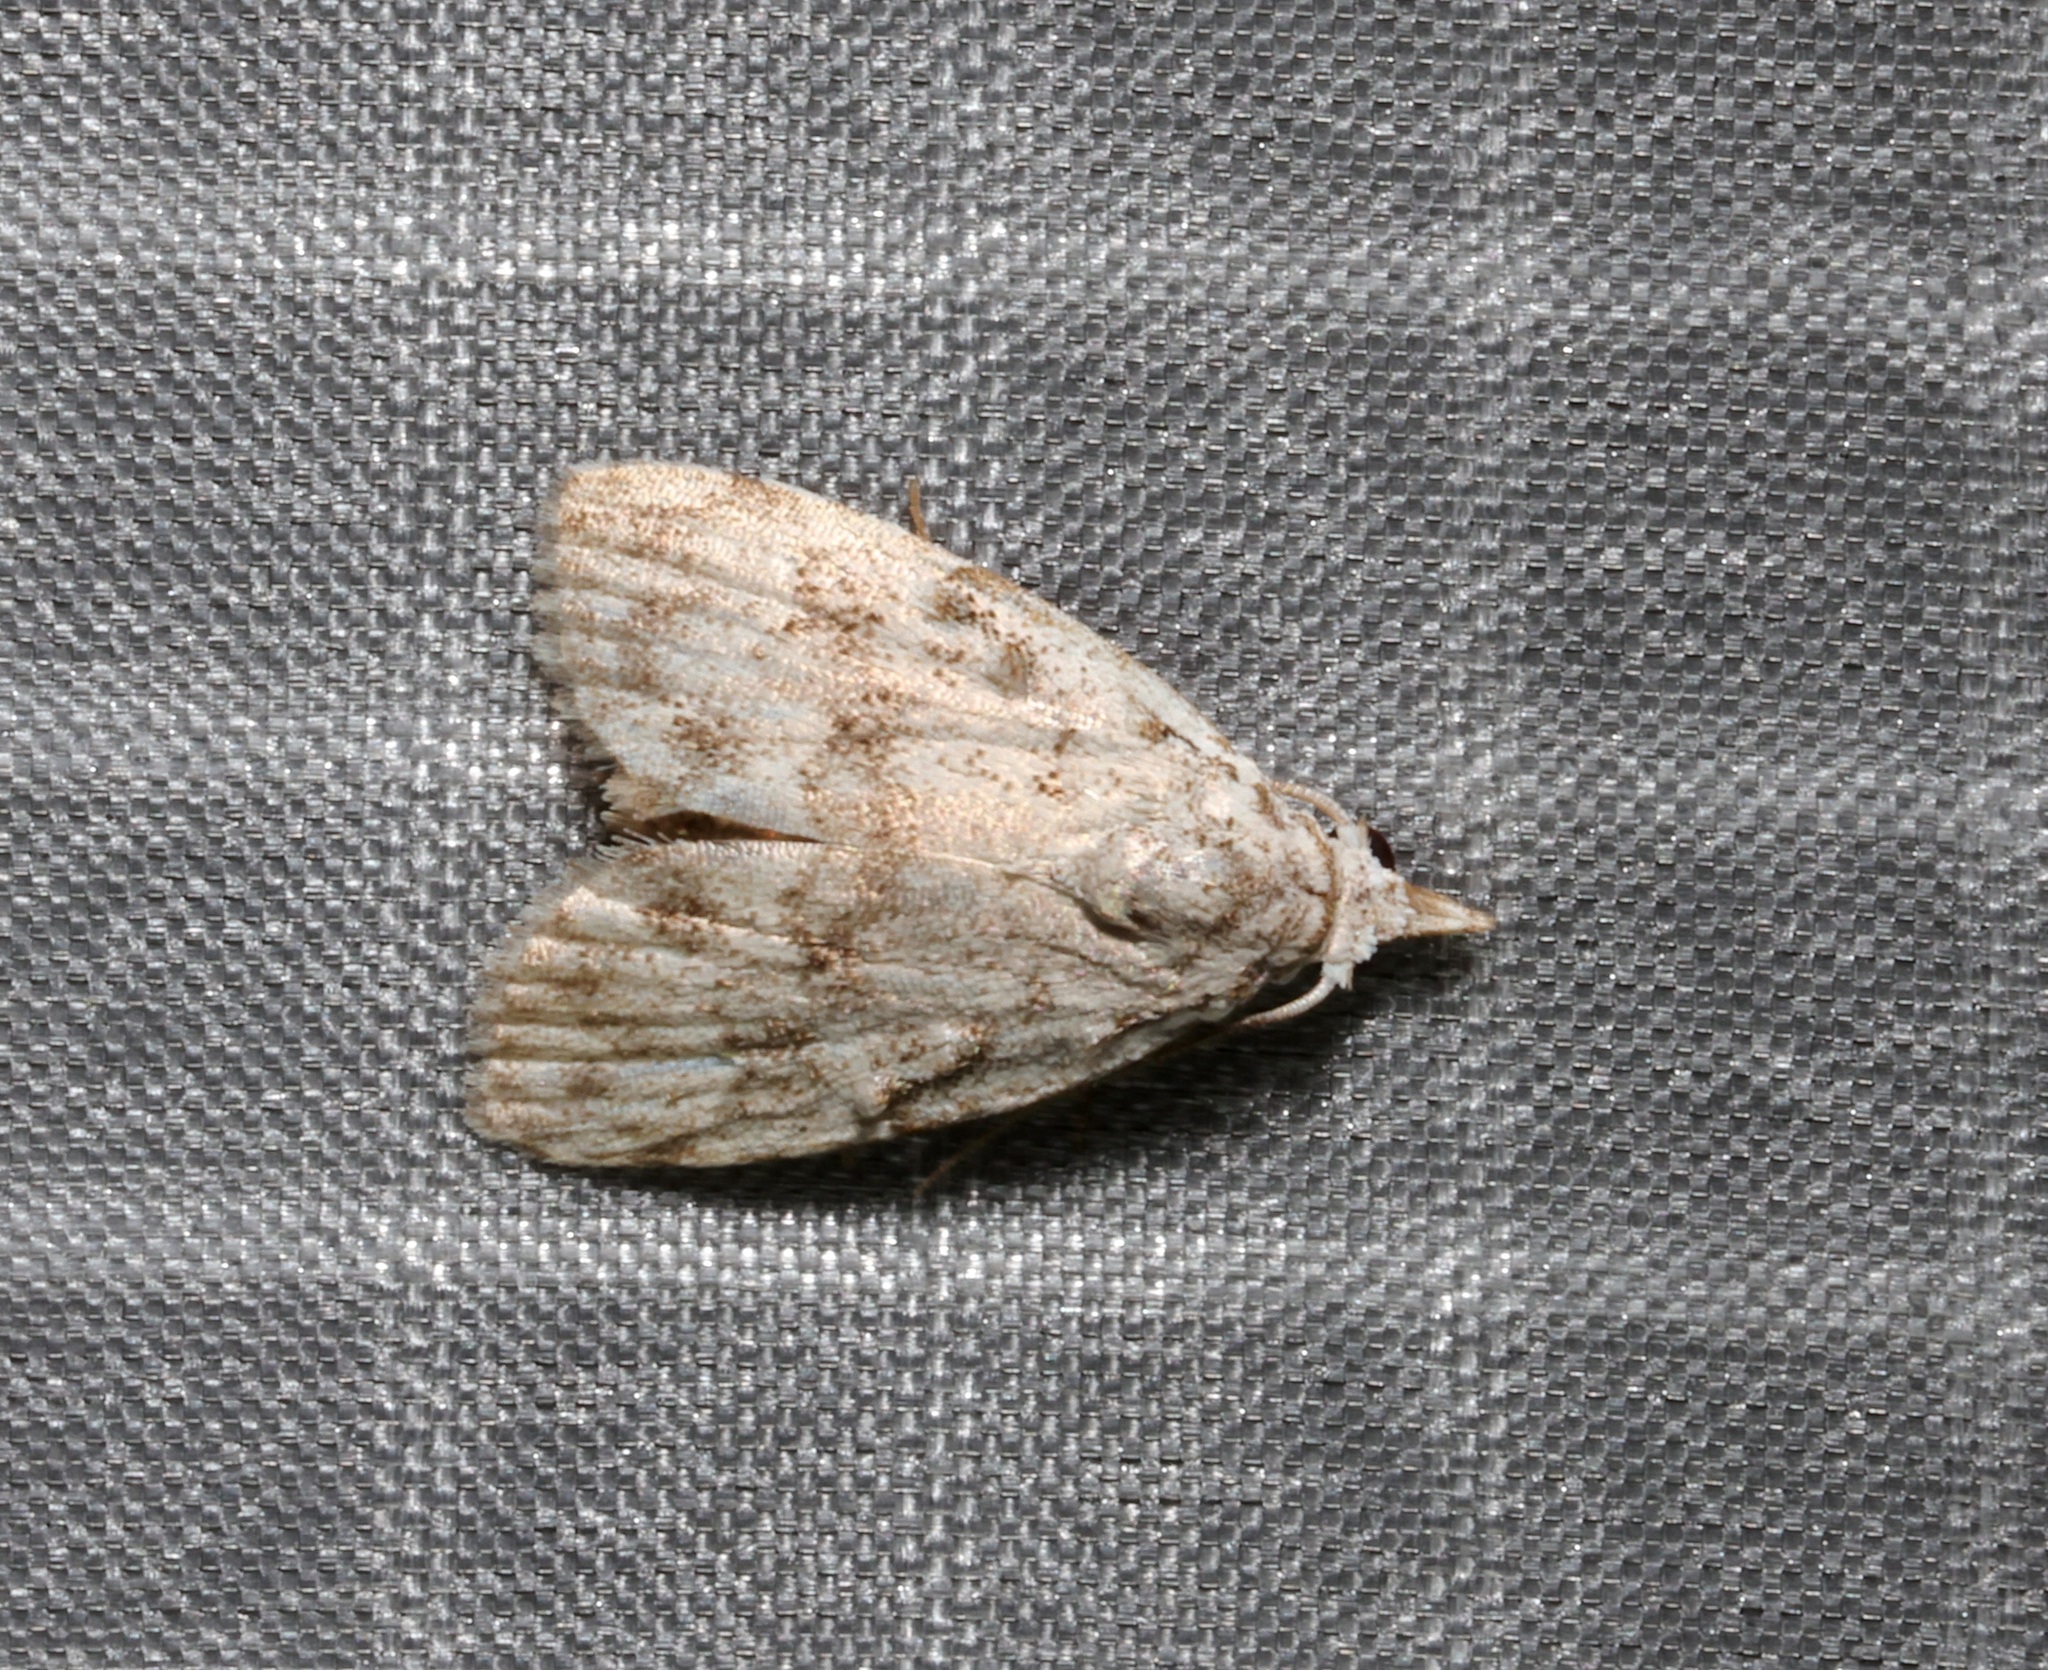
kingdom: Animalia
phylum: Arthropoda
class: Insecta
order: Lepidoptera
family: Nolidae
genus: Nola
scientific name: Nola thyrophora
